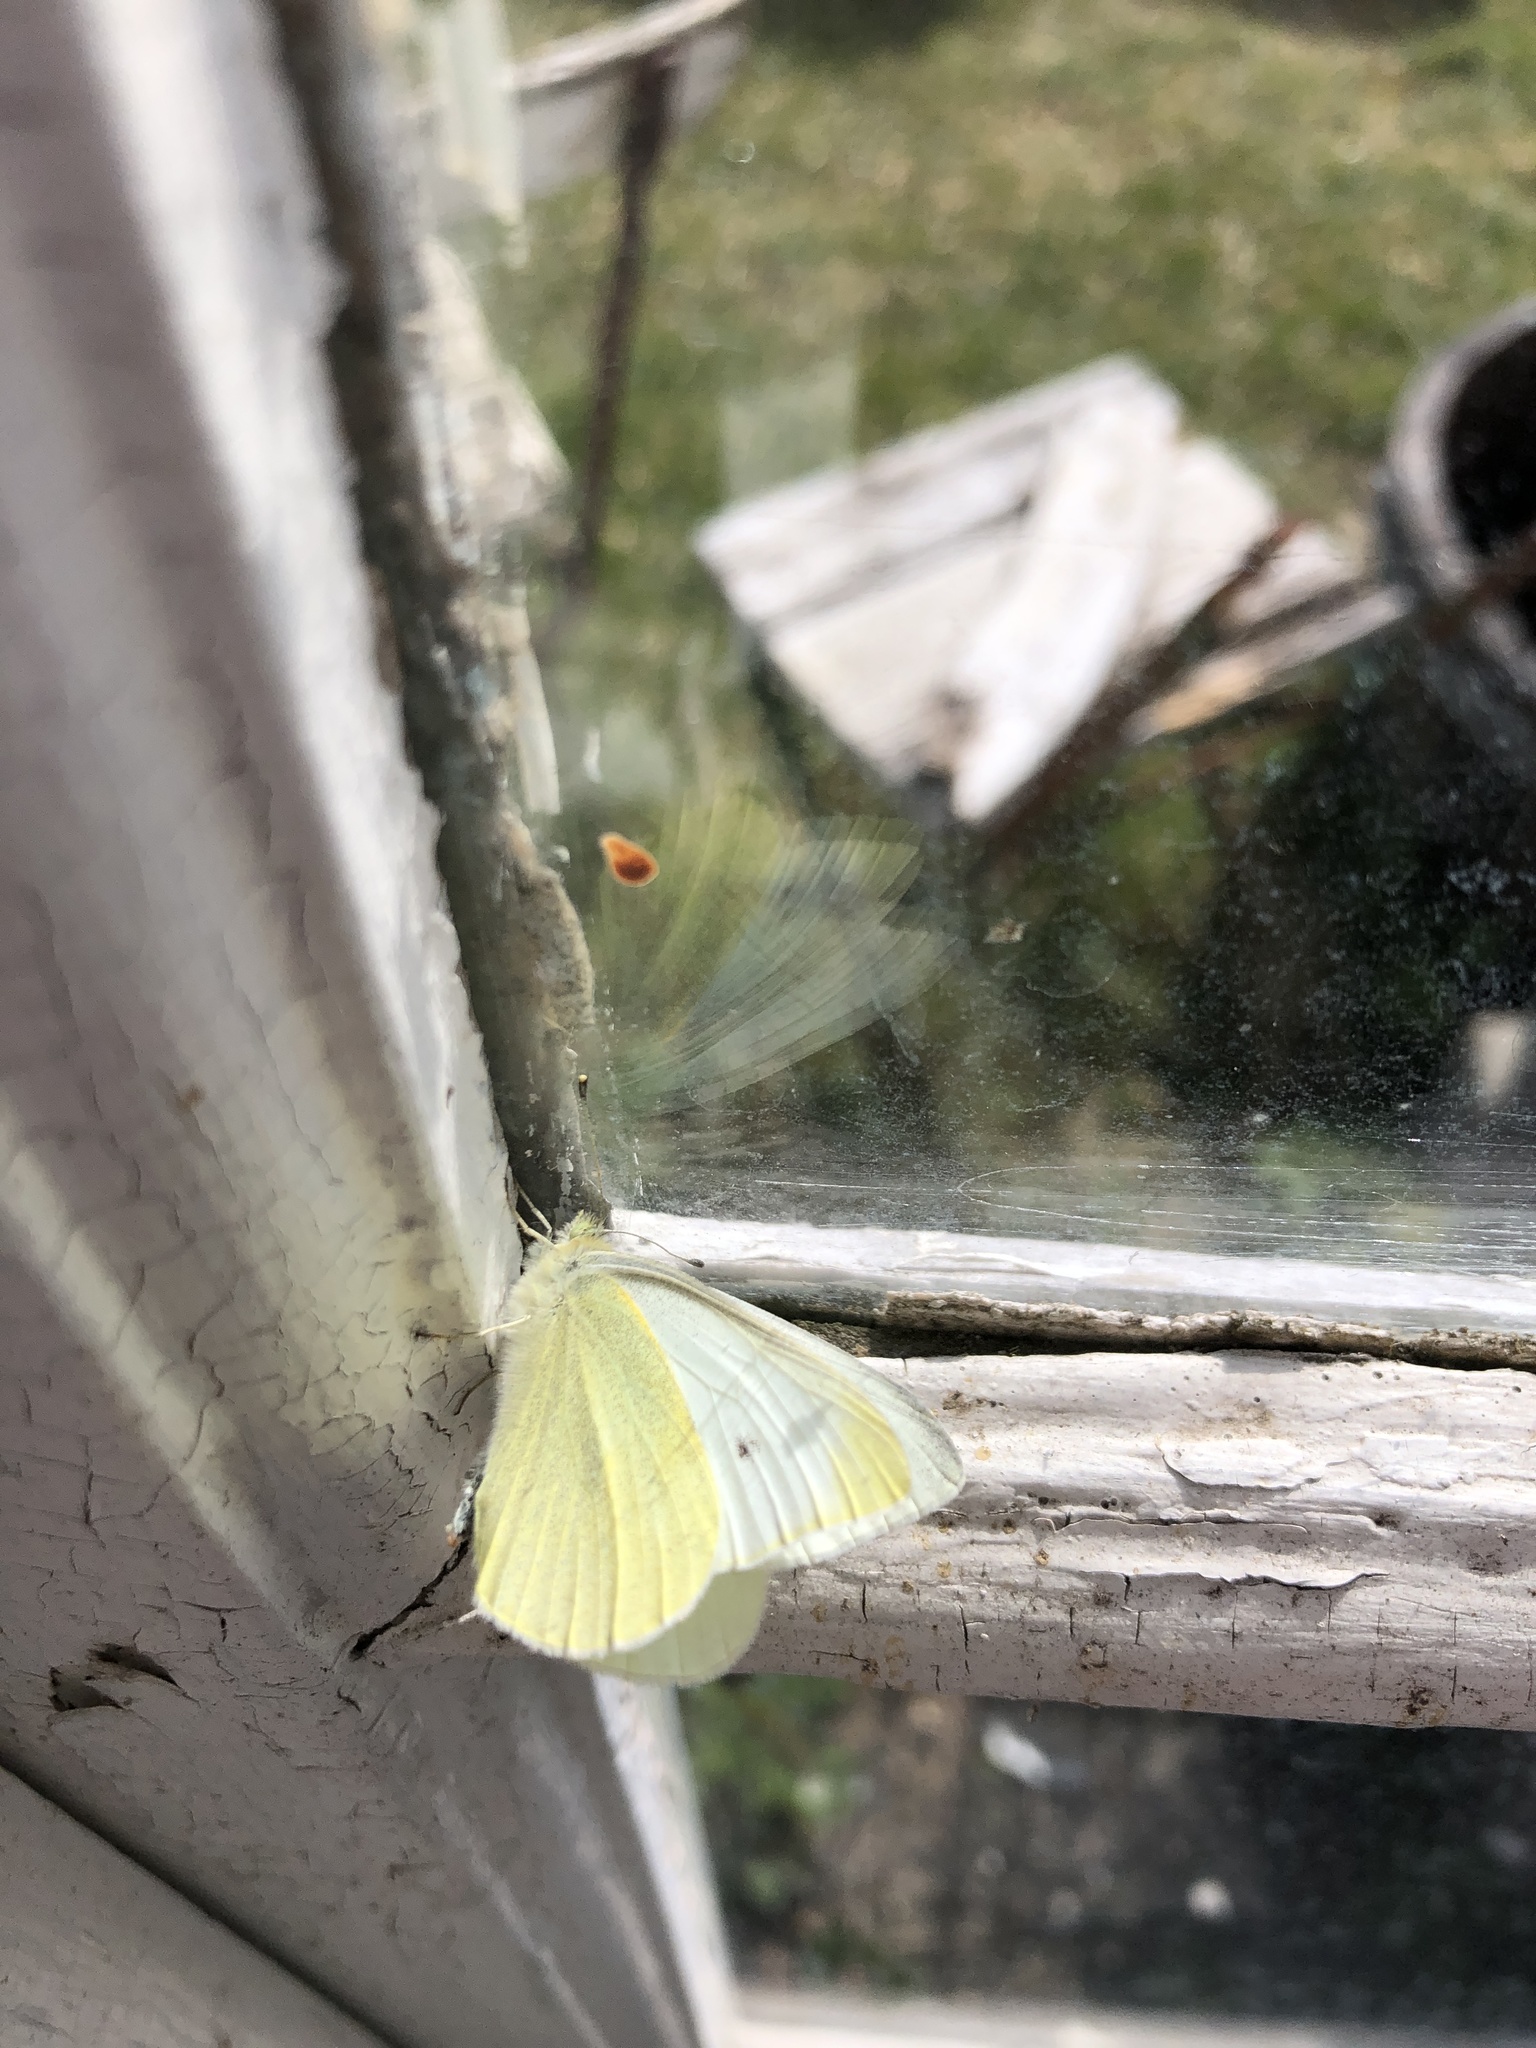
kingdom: Animalia
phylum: Arthropoda
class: Insecta
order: Lepidoptera
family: Pieridae
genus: Pieris
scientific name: Pieris rapae
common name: Small white
